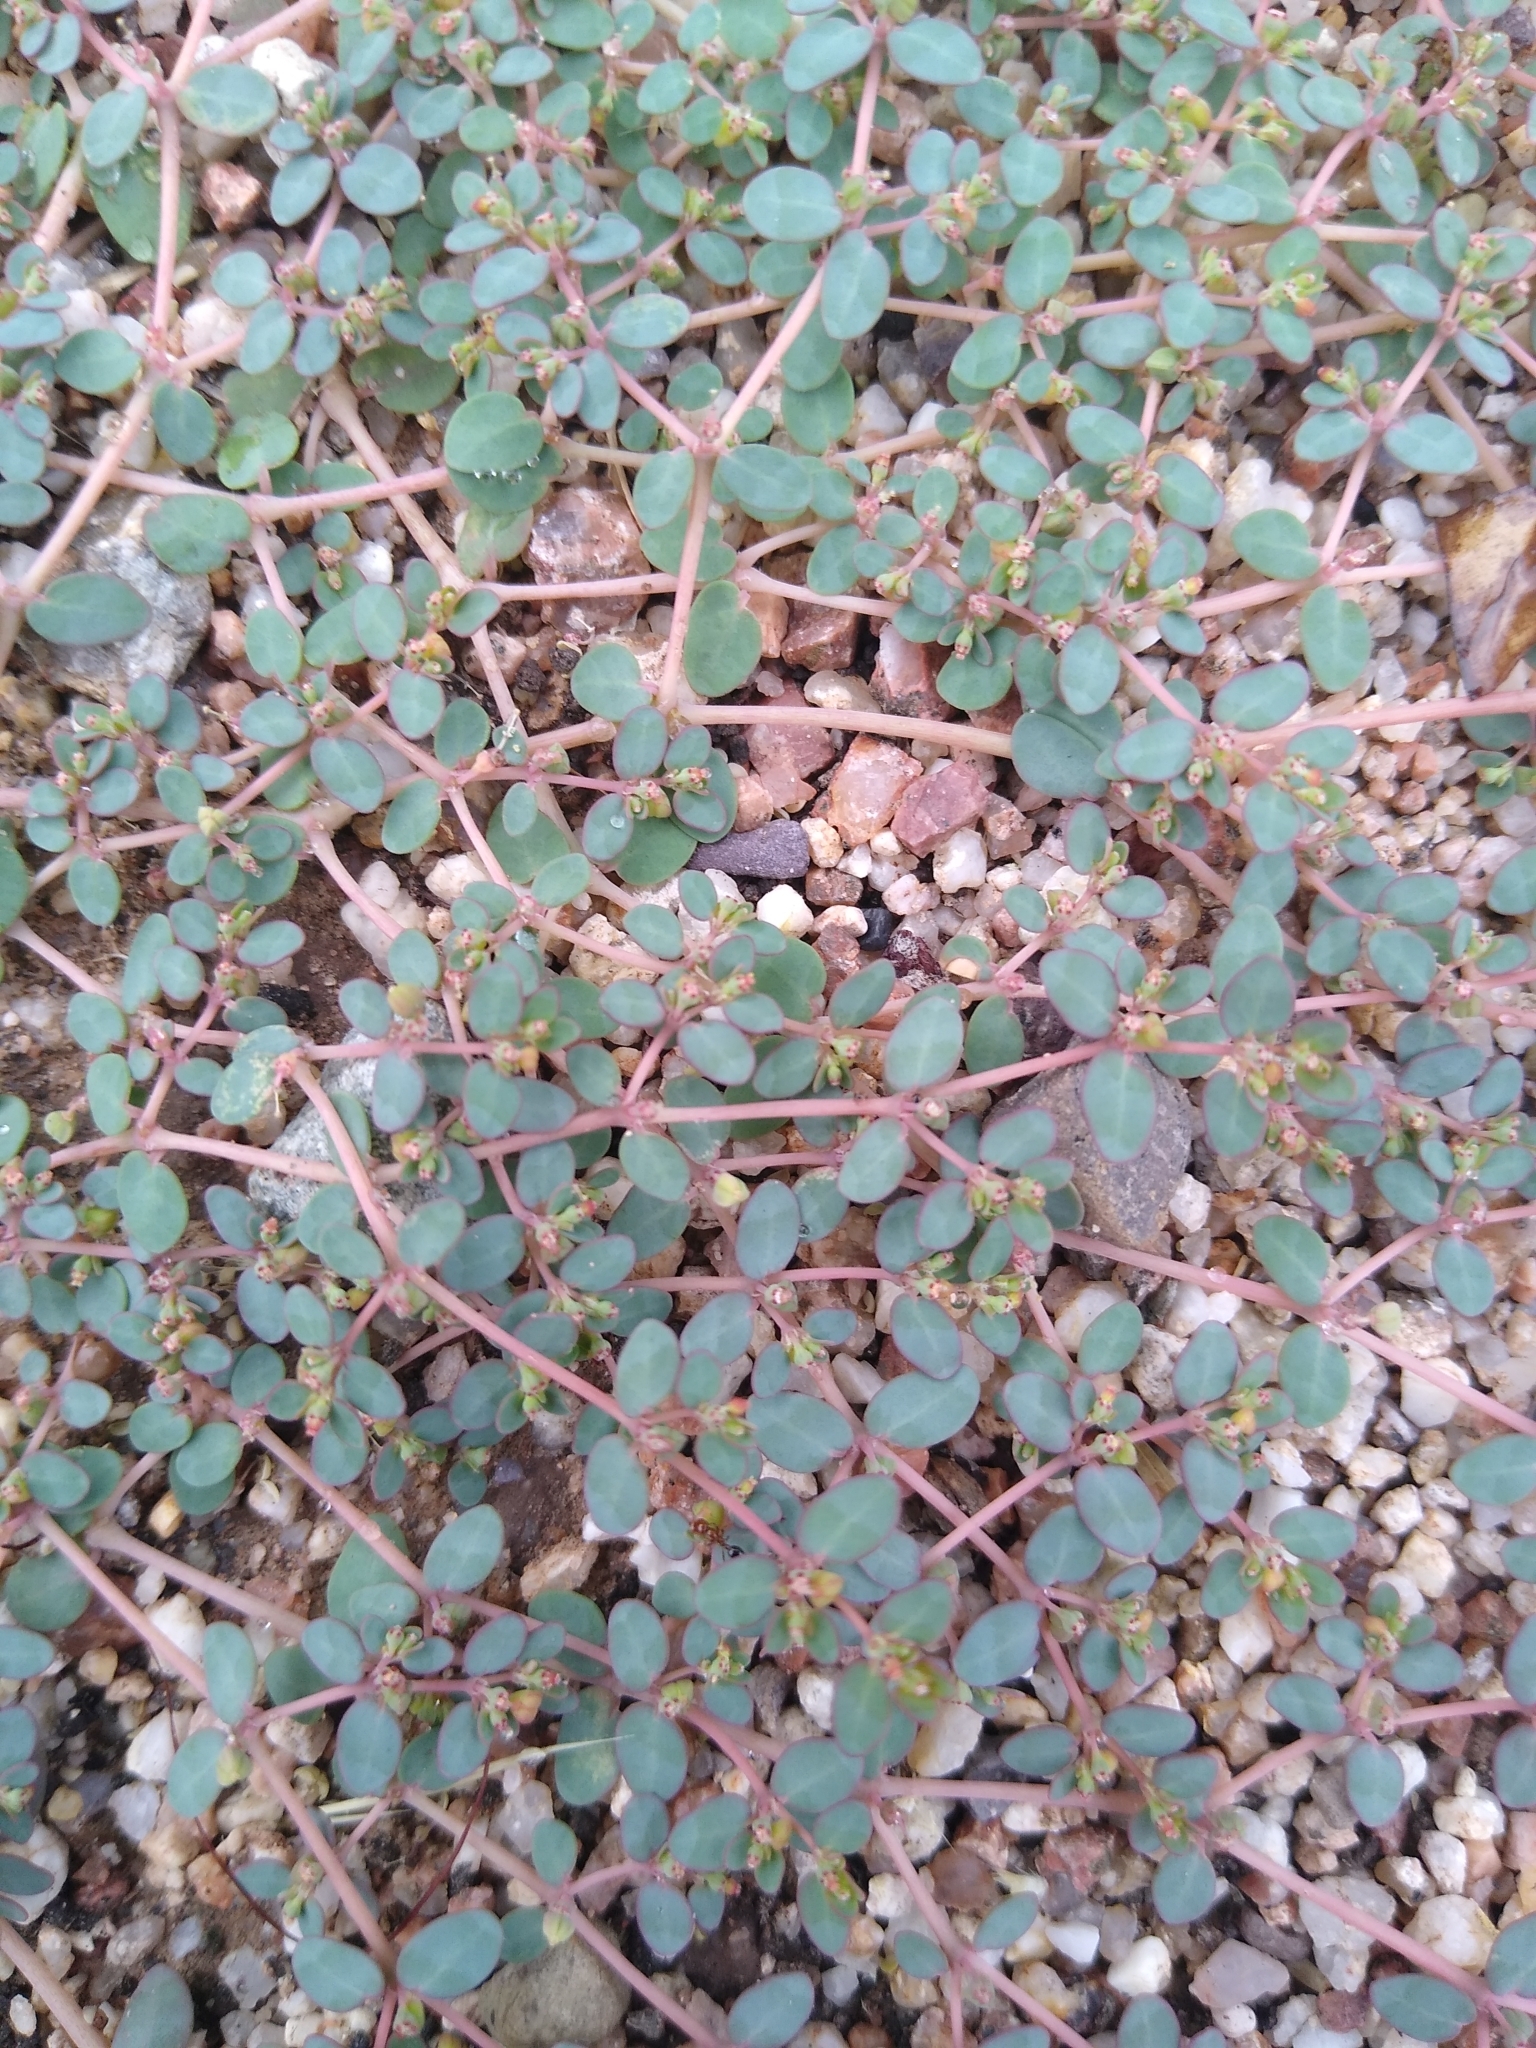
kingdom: Plantae
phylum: Tracheophyta
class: Magnoliopsida
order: Malpighiales
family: Euphorbiaceae
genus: Euphorbia
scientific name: Euphorbia micromera
